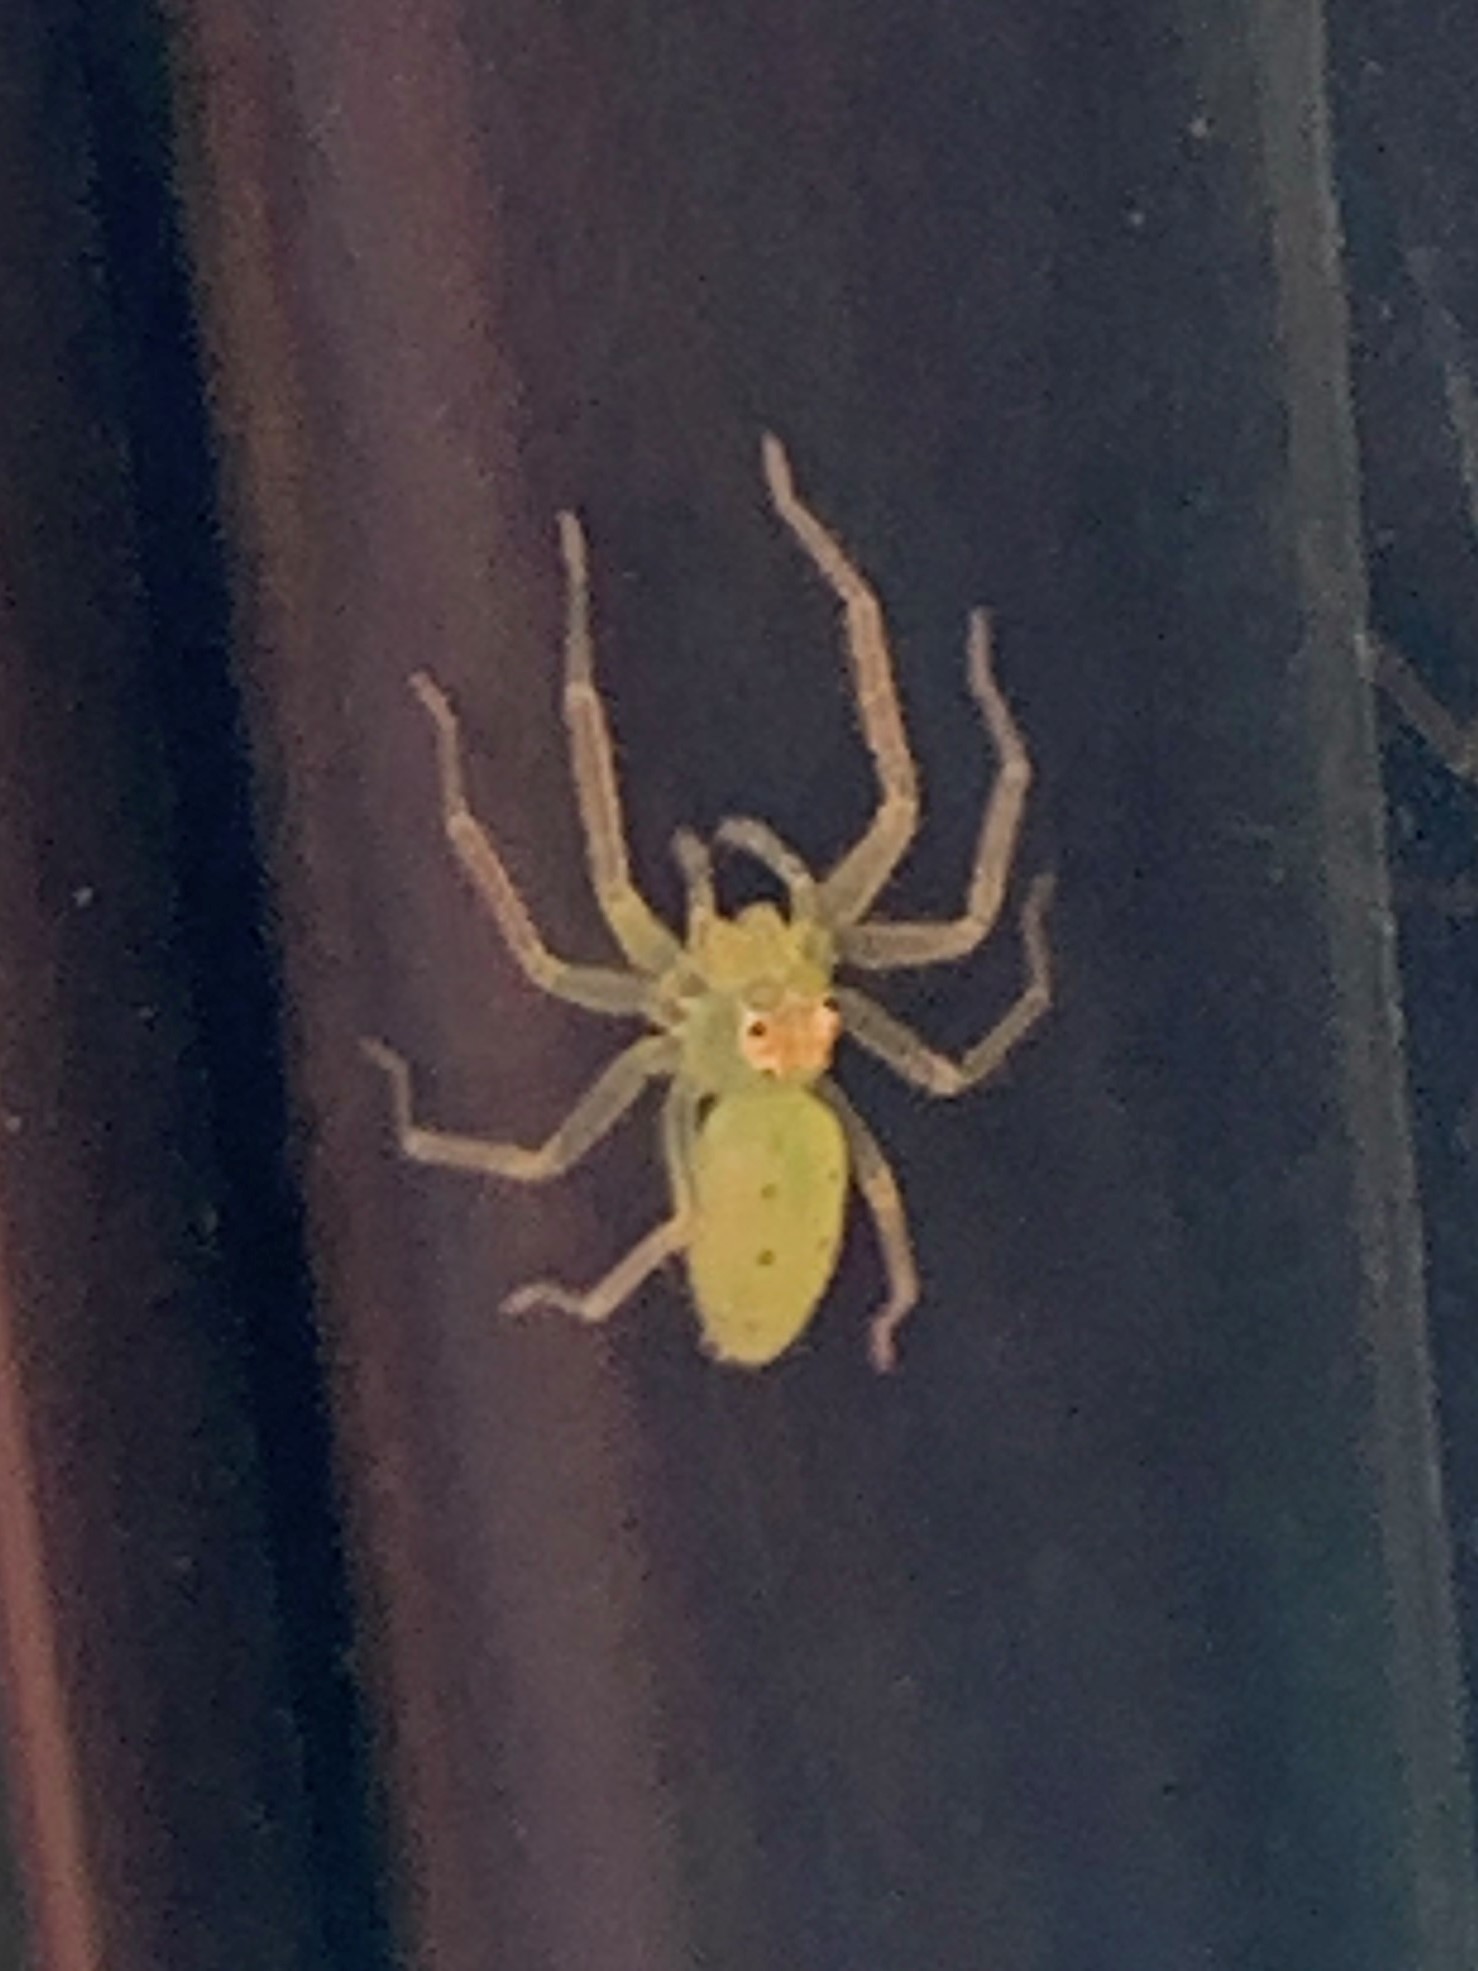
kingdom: Animalia
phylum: Arthropoda
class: Arachnida
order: Araneae
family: Salticidae
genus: Lyssomanes
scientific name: Lyssomanes viridis
